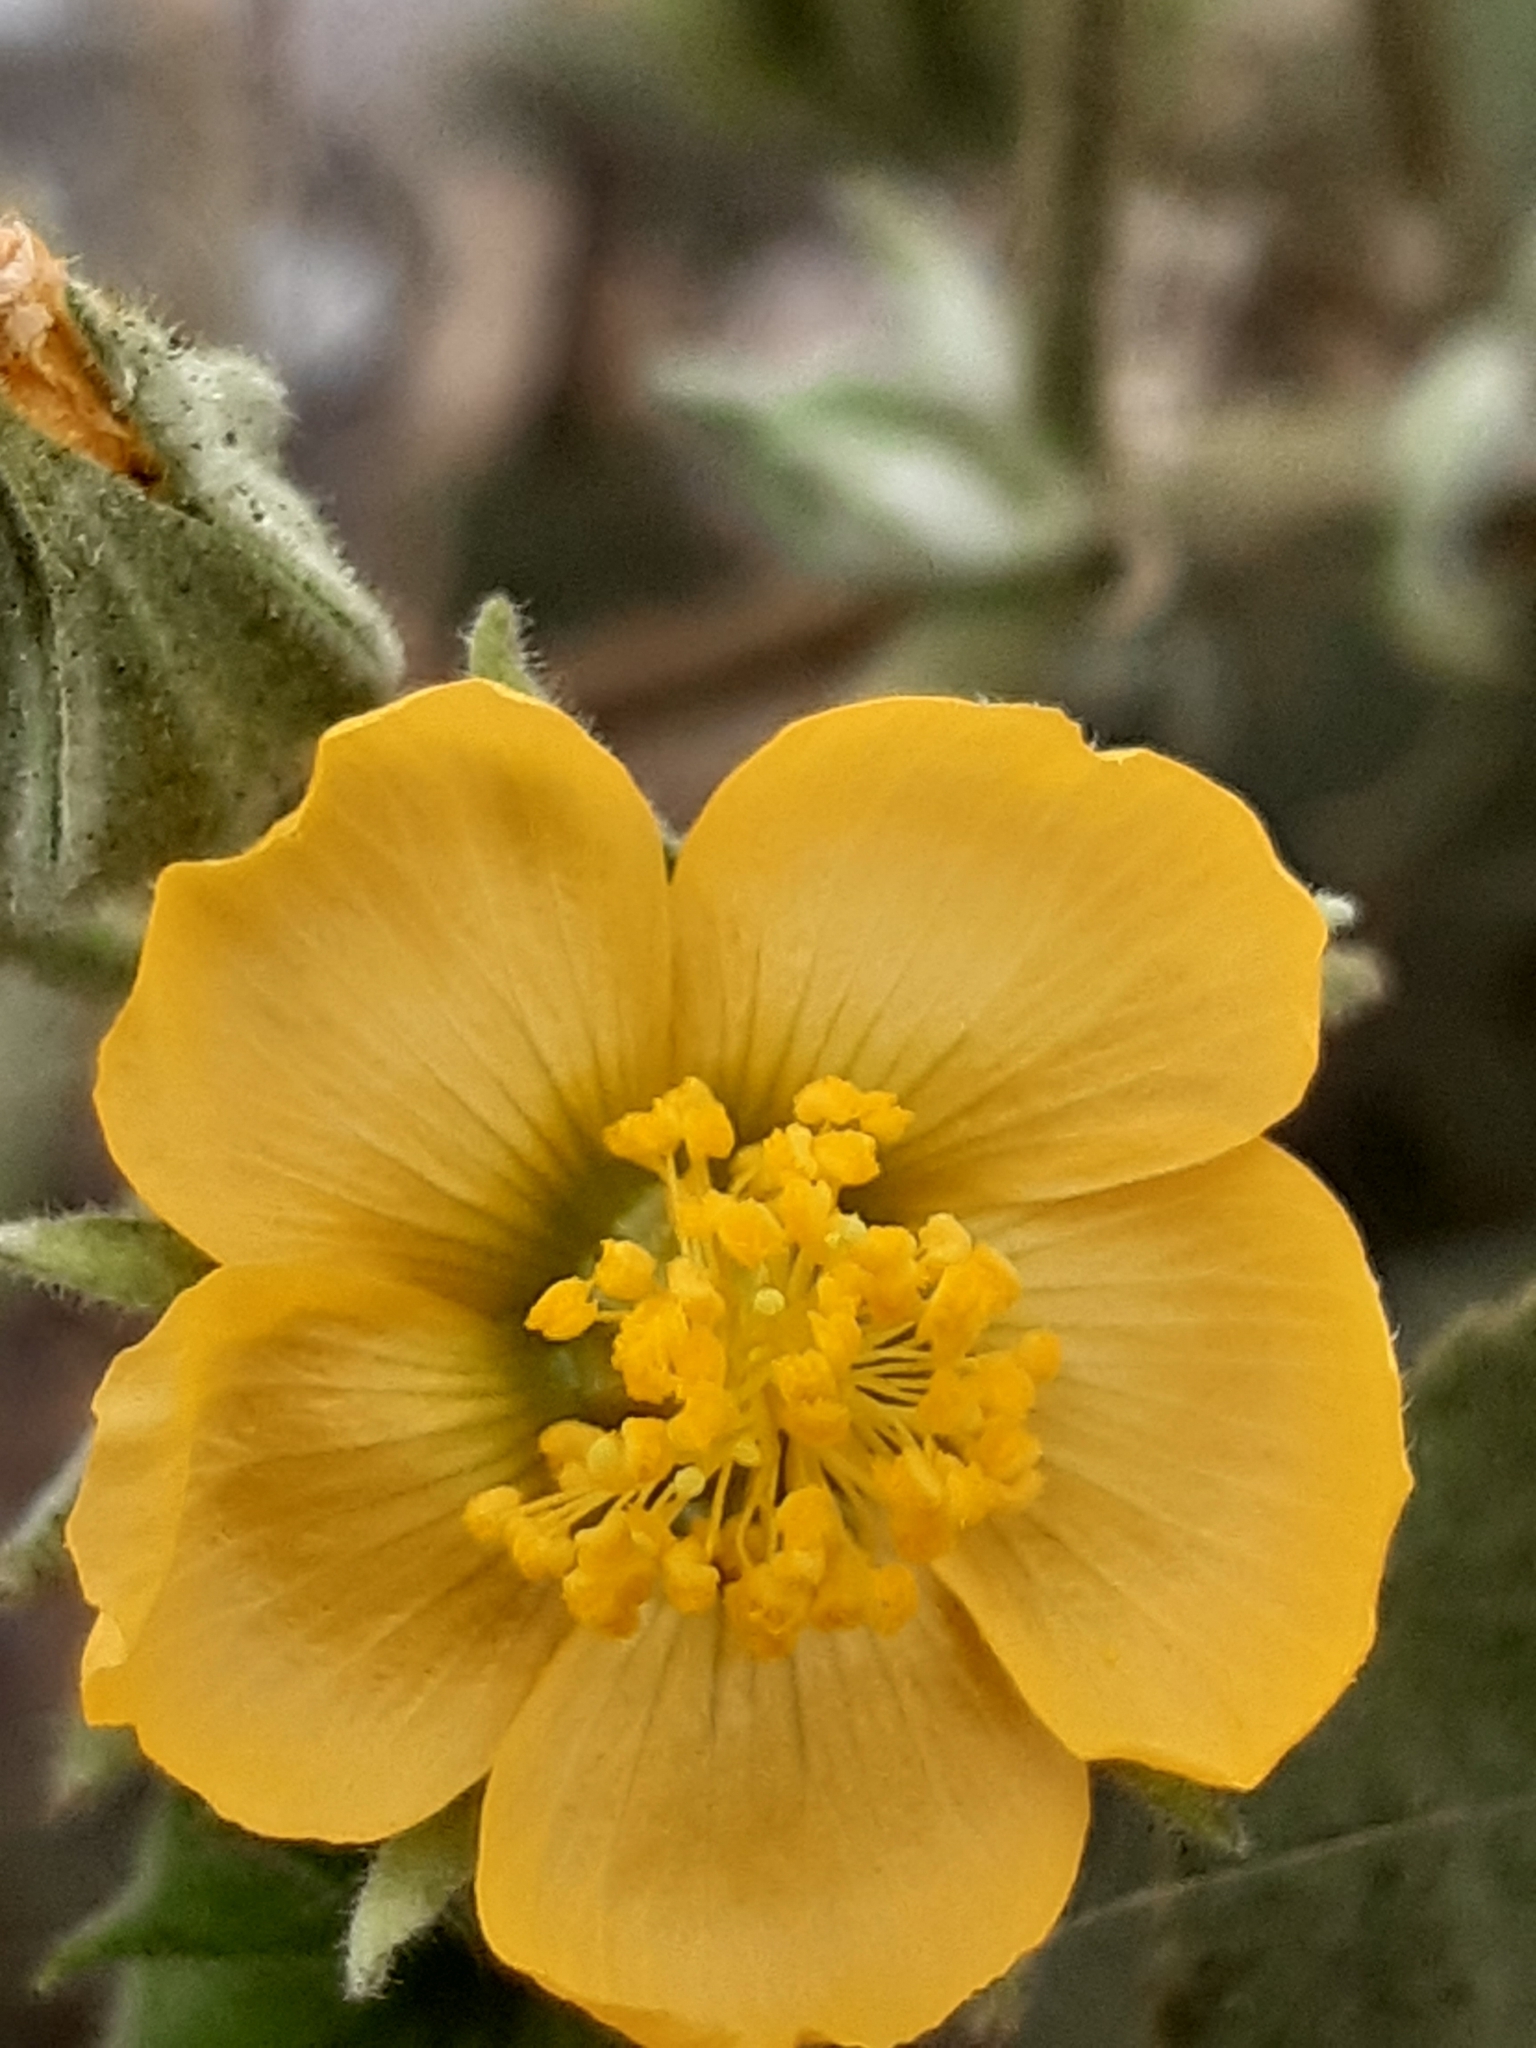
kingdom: Plantae
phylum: Tracheophyta
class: Magnoliopsida
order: Malvales
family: Malvaceae
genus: Abutilon
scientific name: Abutilon dugesii
